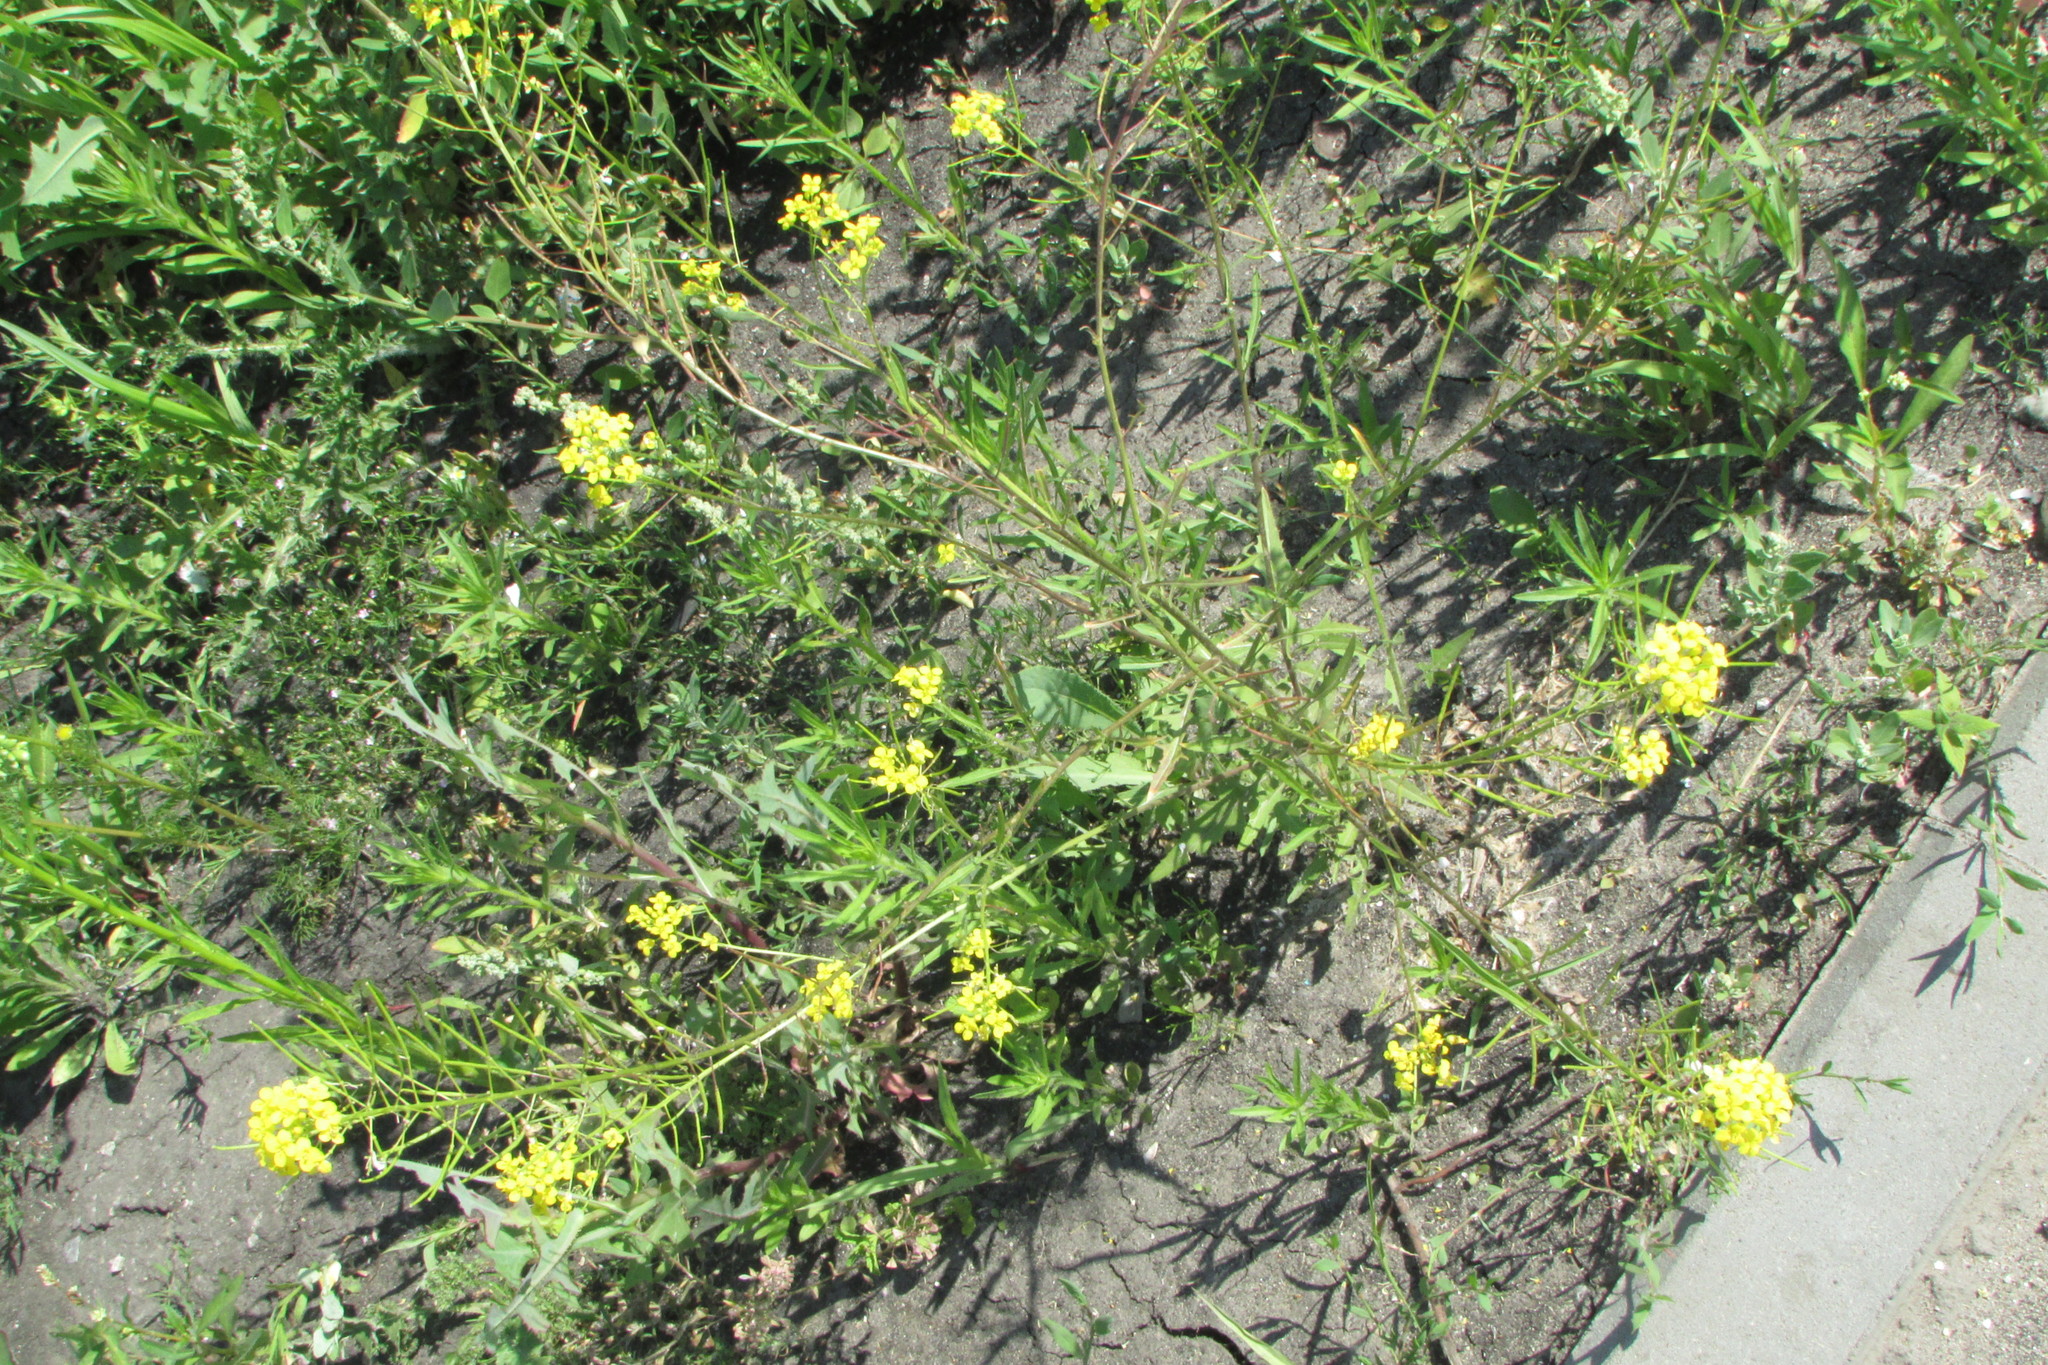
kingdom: Plantae
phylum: Tracheophyta
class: Magnoliopsida
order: Brassicales
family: Brassicaceae
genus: Sisymbrium
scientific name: Sisymbrium loeselii
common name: False london-rocket
